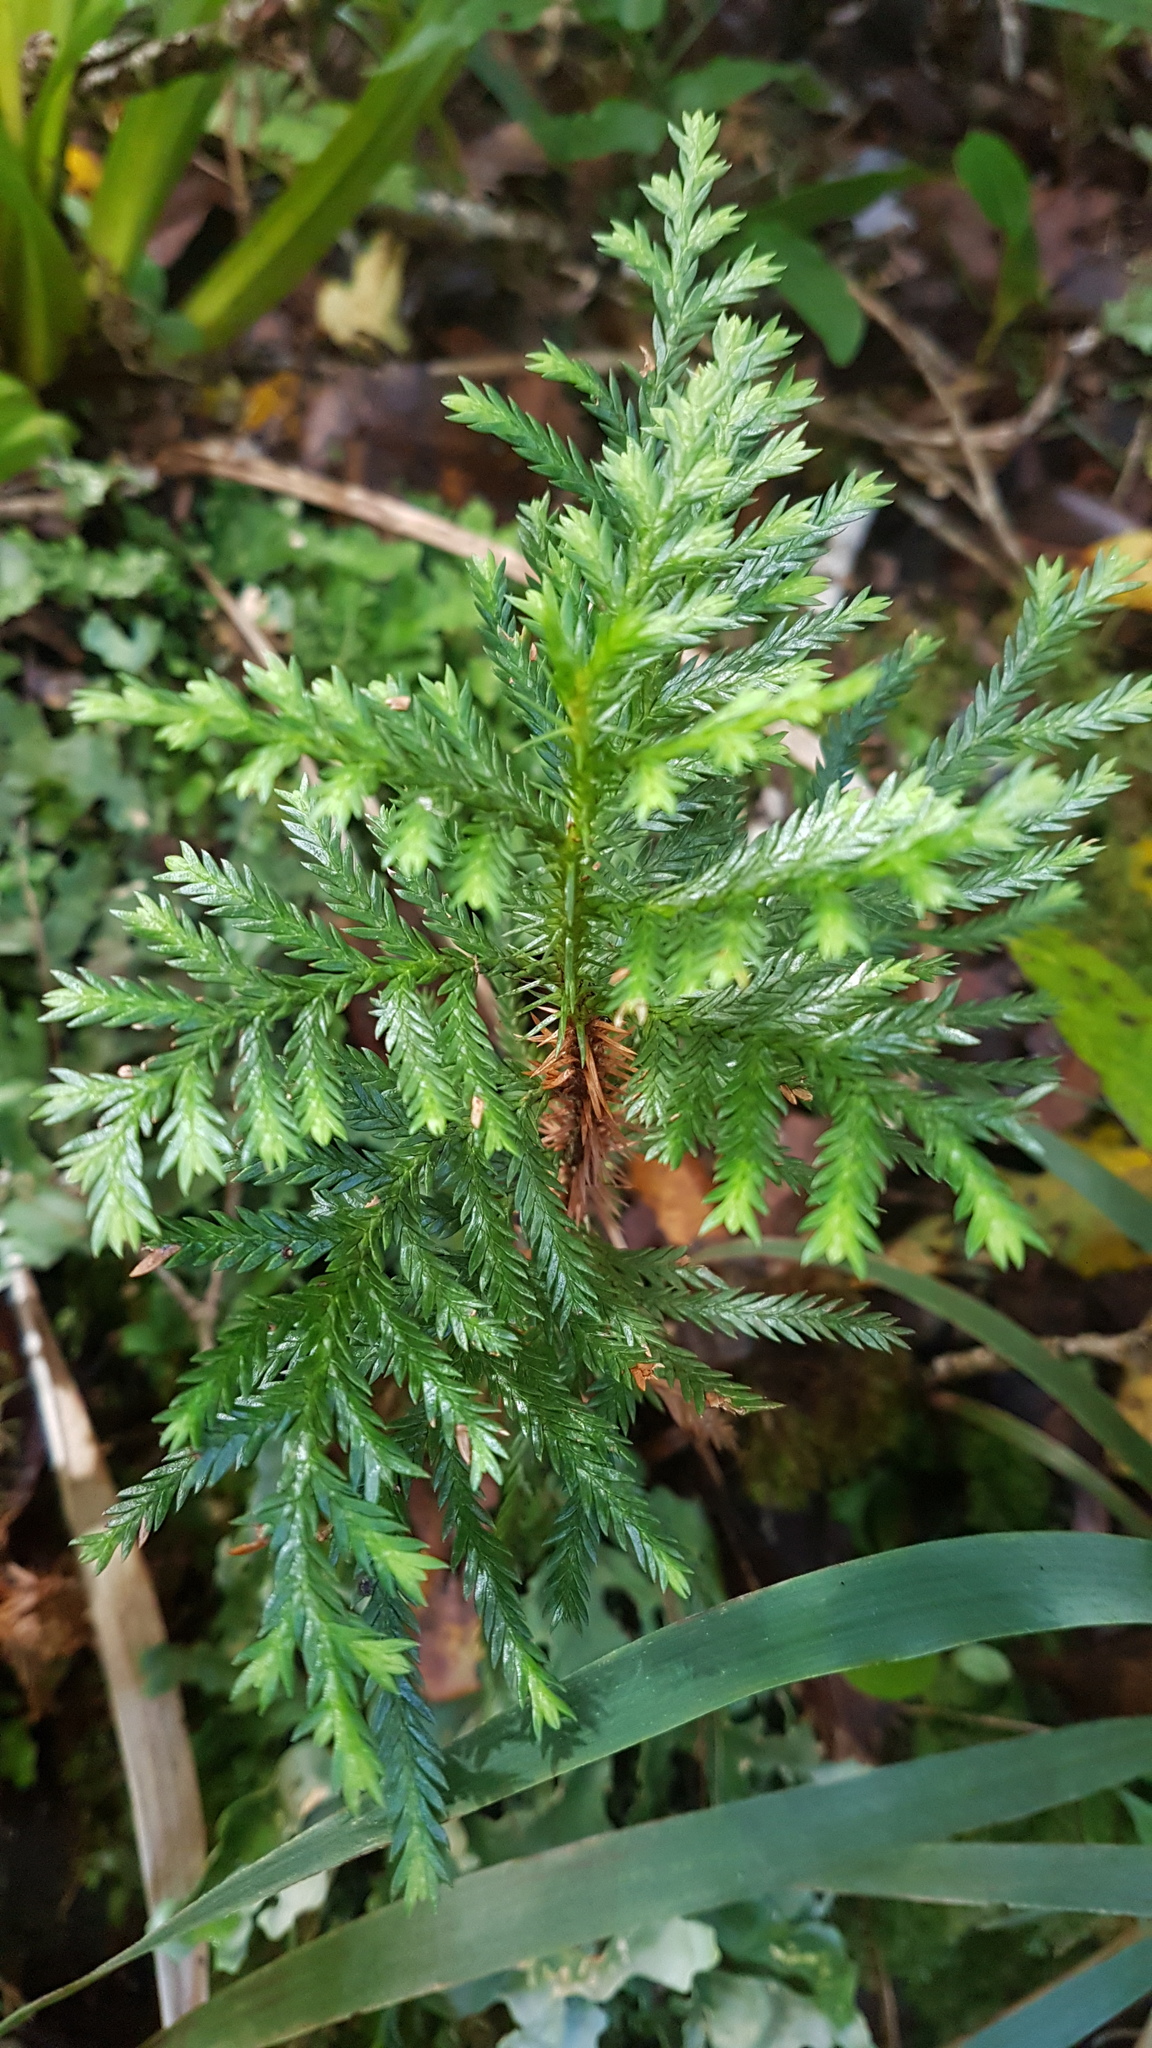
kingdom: Plantae
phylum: Tracheophyta
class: Pinopsida
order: Pinales
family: Cupressaceae
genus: Libocedrus
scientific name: Libocedrus bidwillii
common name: Cedar
